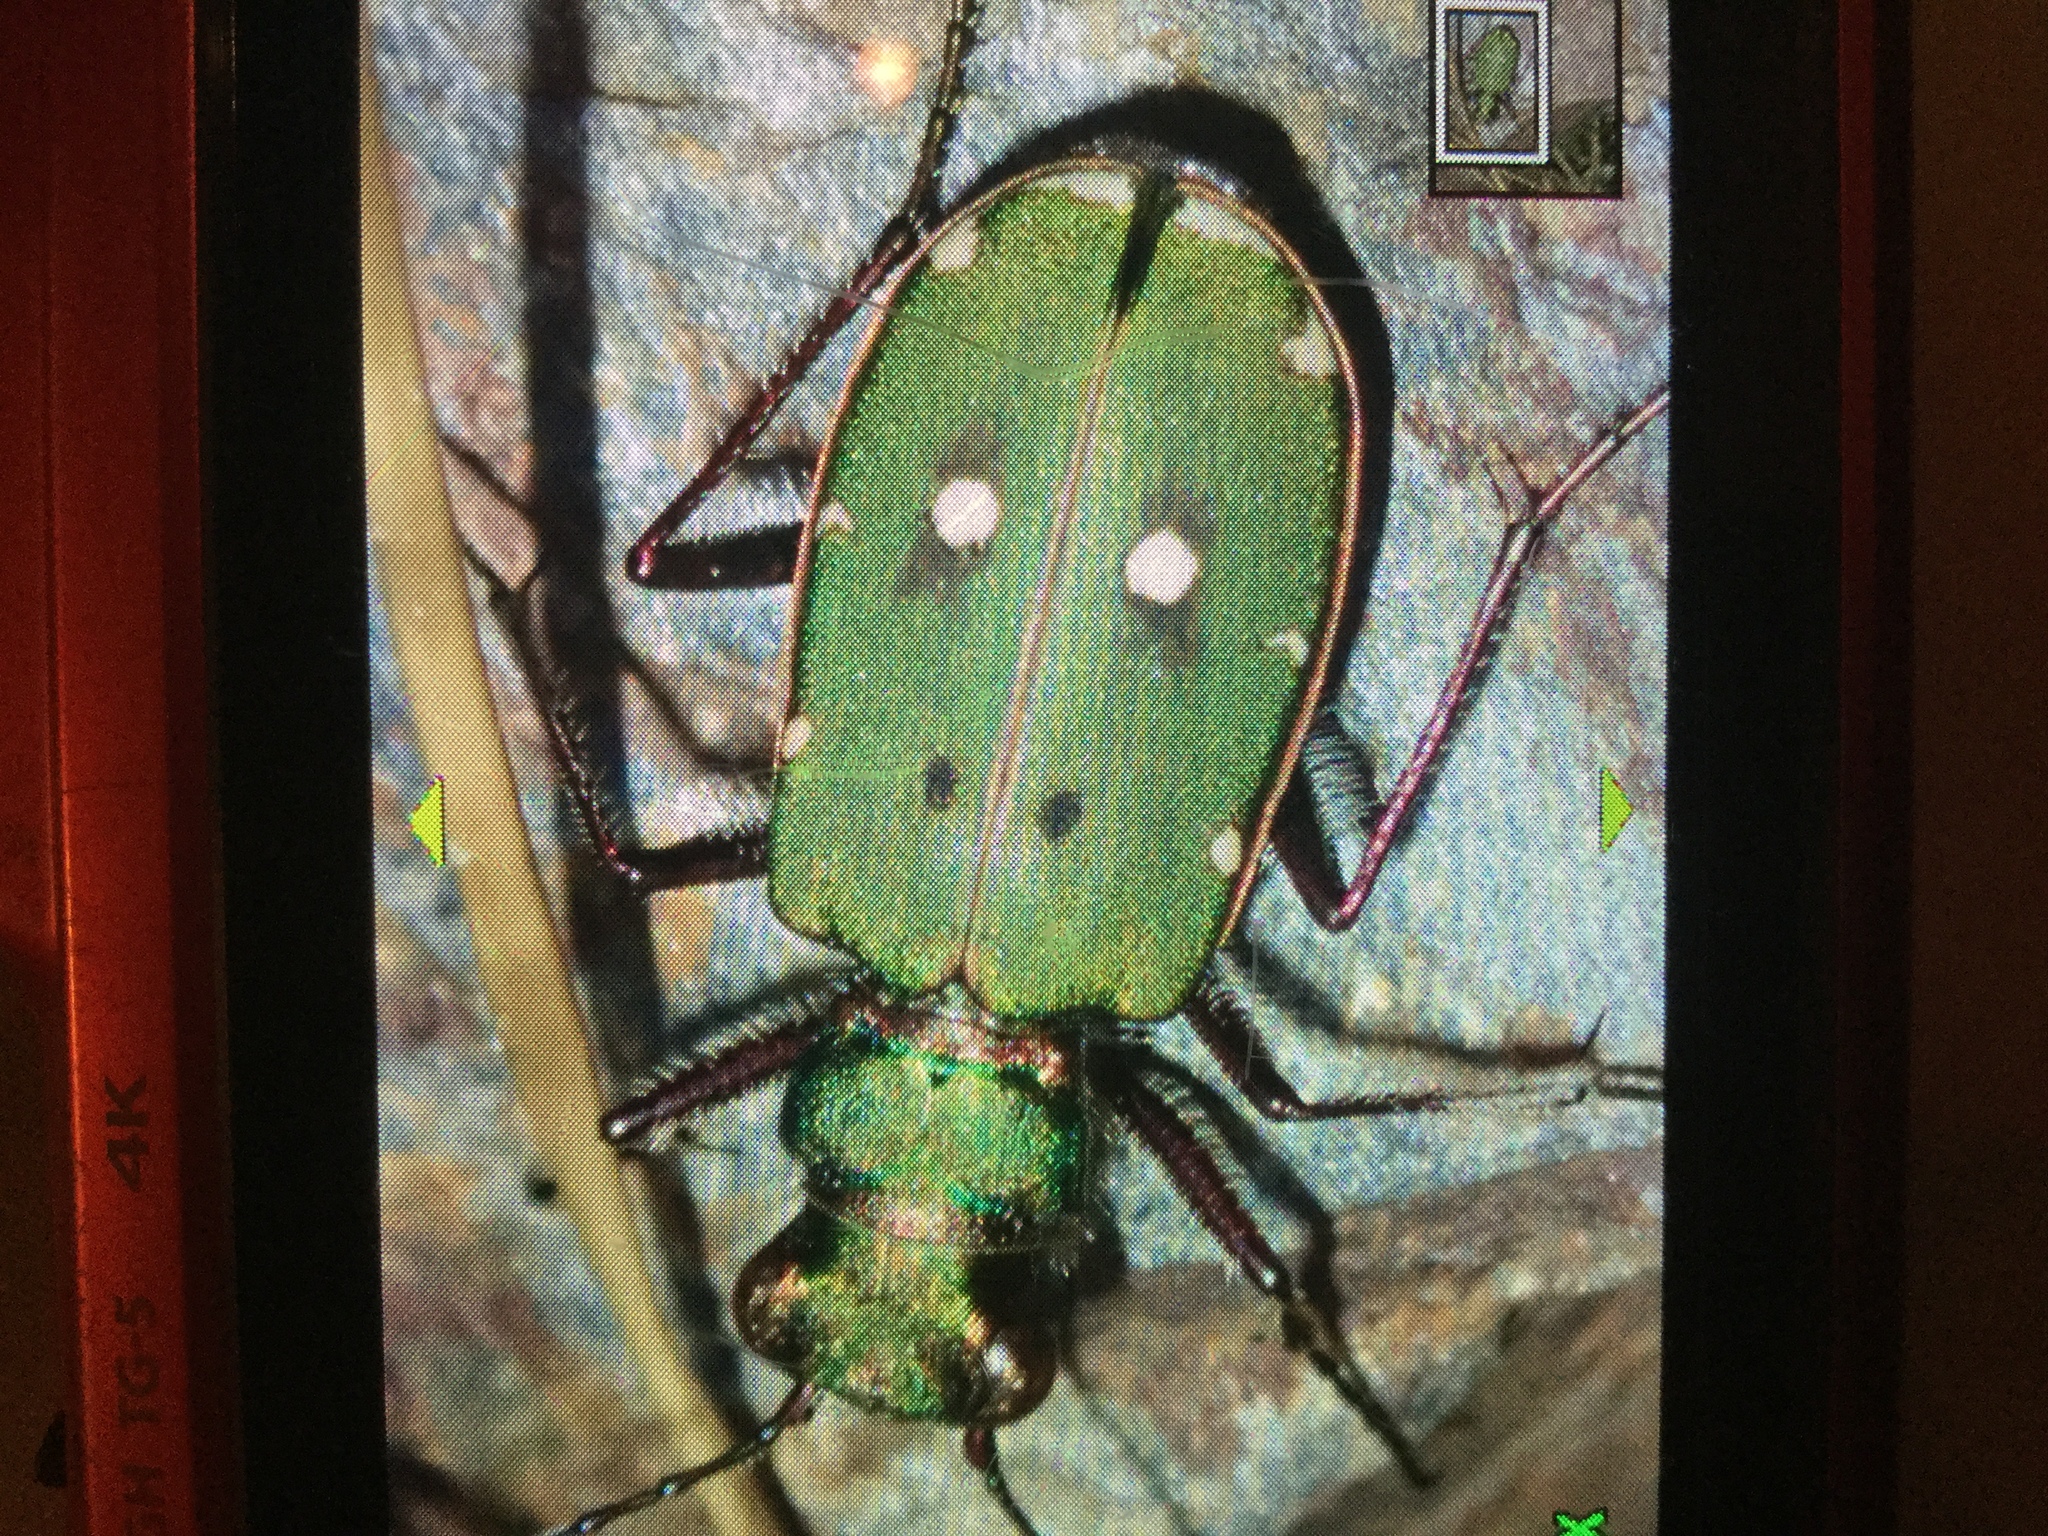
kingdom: Animalia
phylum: Arthropoda
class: Insecta
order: Coleoptera
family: Carabidae
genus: Cicindela
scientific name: Cicindela campestris
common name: Common tiger beetle
